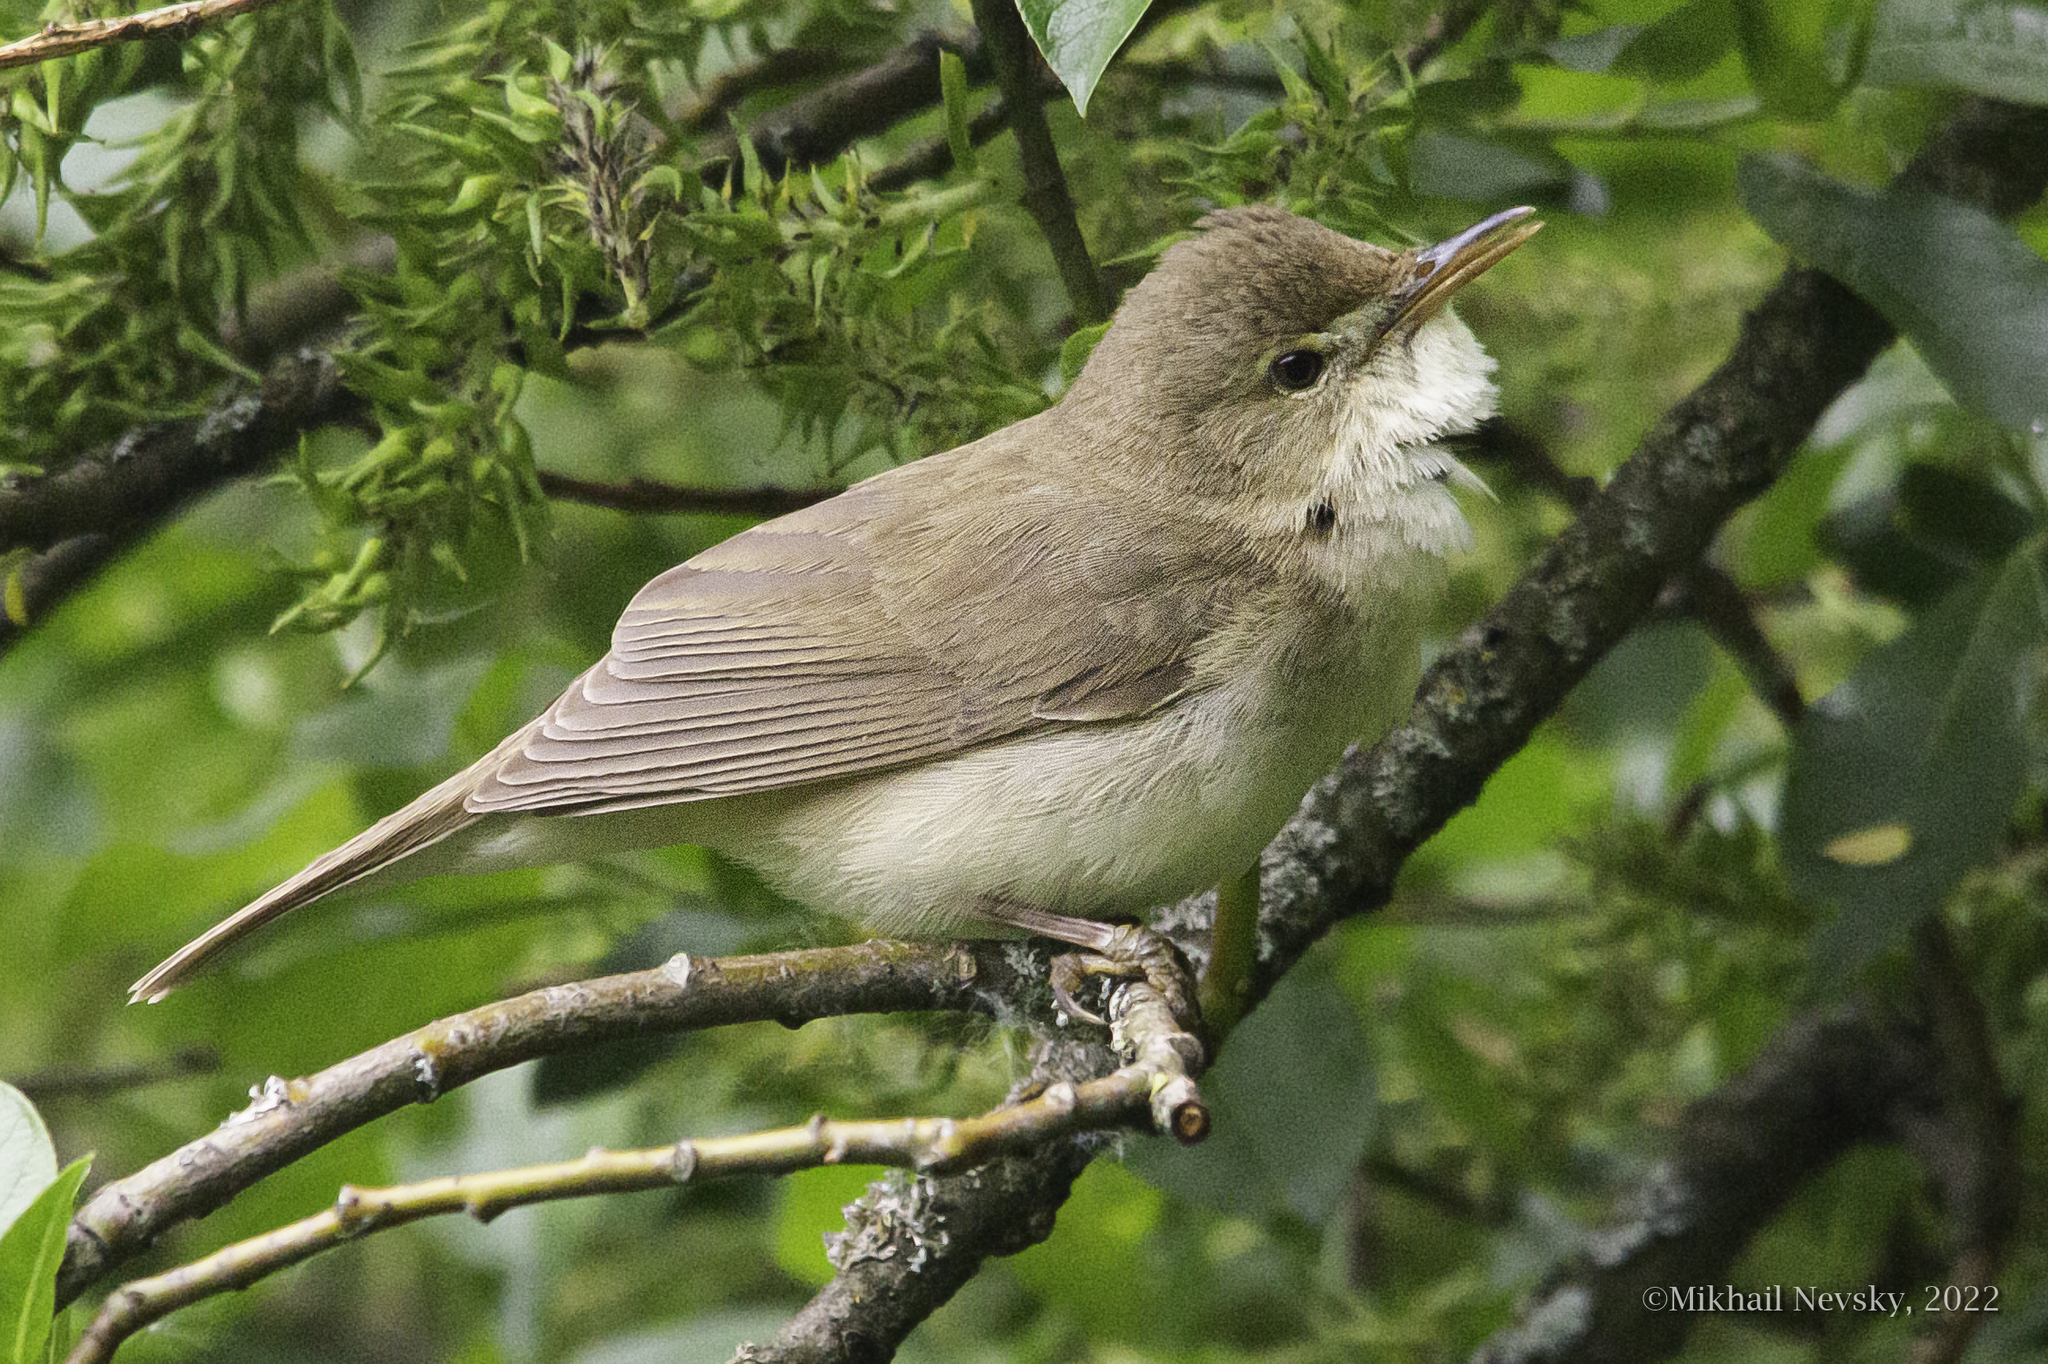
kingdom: Animalia
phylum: Chordata
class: Aves
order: Passeriformes
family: Acrocephalidae
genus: Acrocephalus
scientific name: Acrocephalus dumetorum
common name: Blyth's reed warbler
